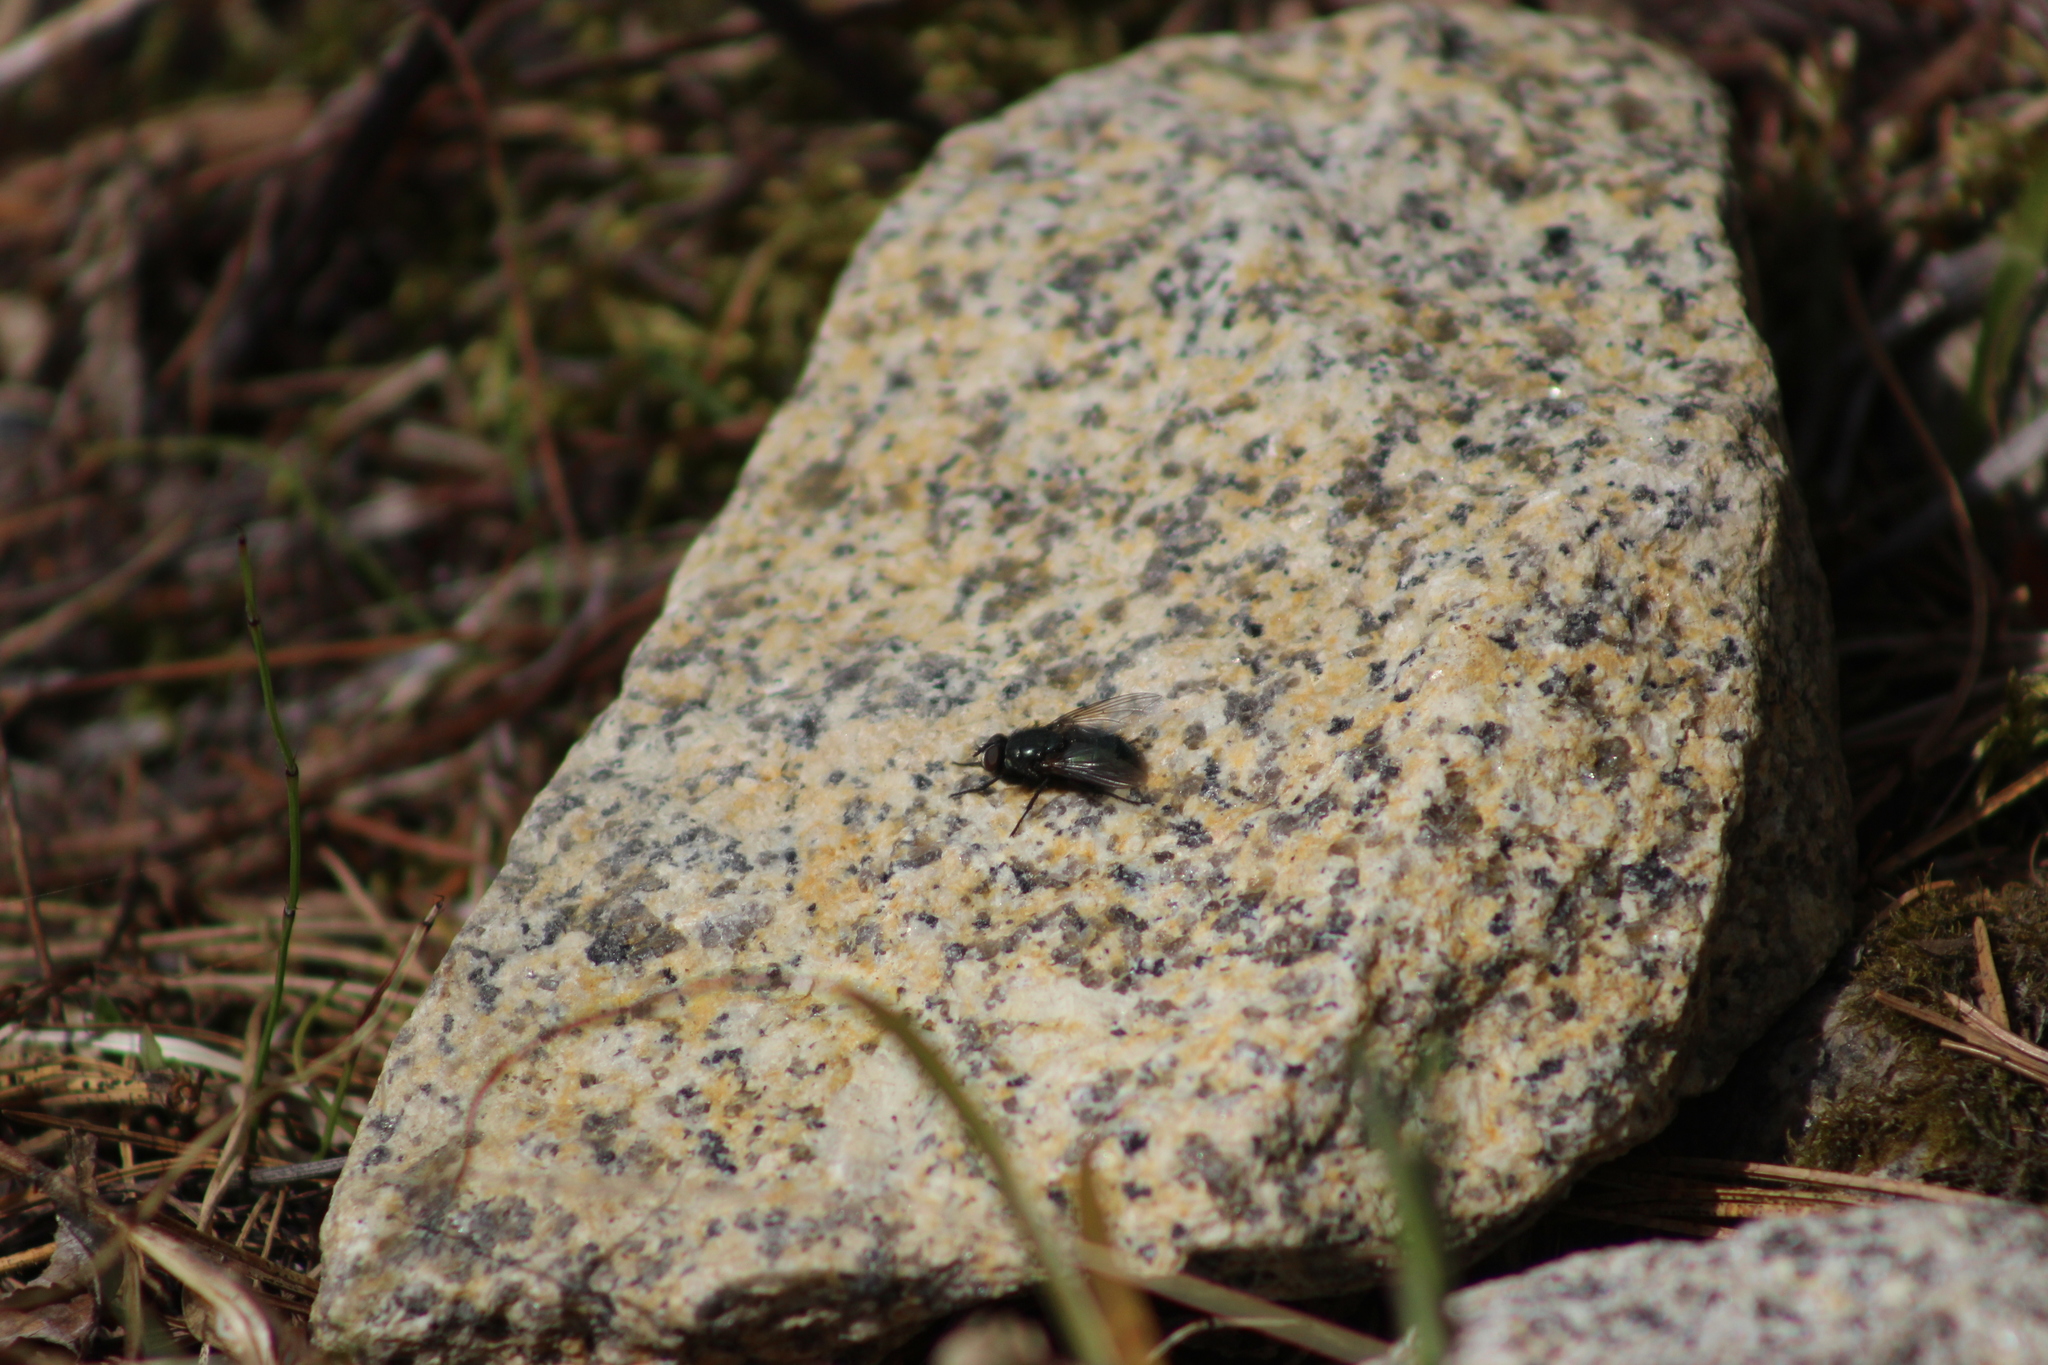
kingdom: Animalia
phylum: Arthropoda
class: Insecta
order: Diptera
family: Calliphoridae
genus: Protophormia
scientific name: Protophormia terraenovae
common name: Blackbottle
